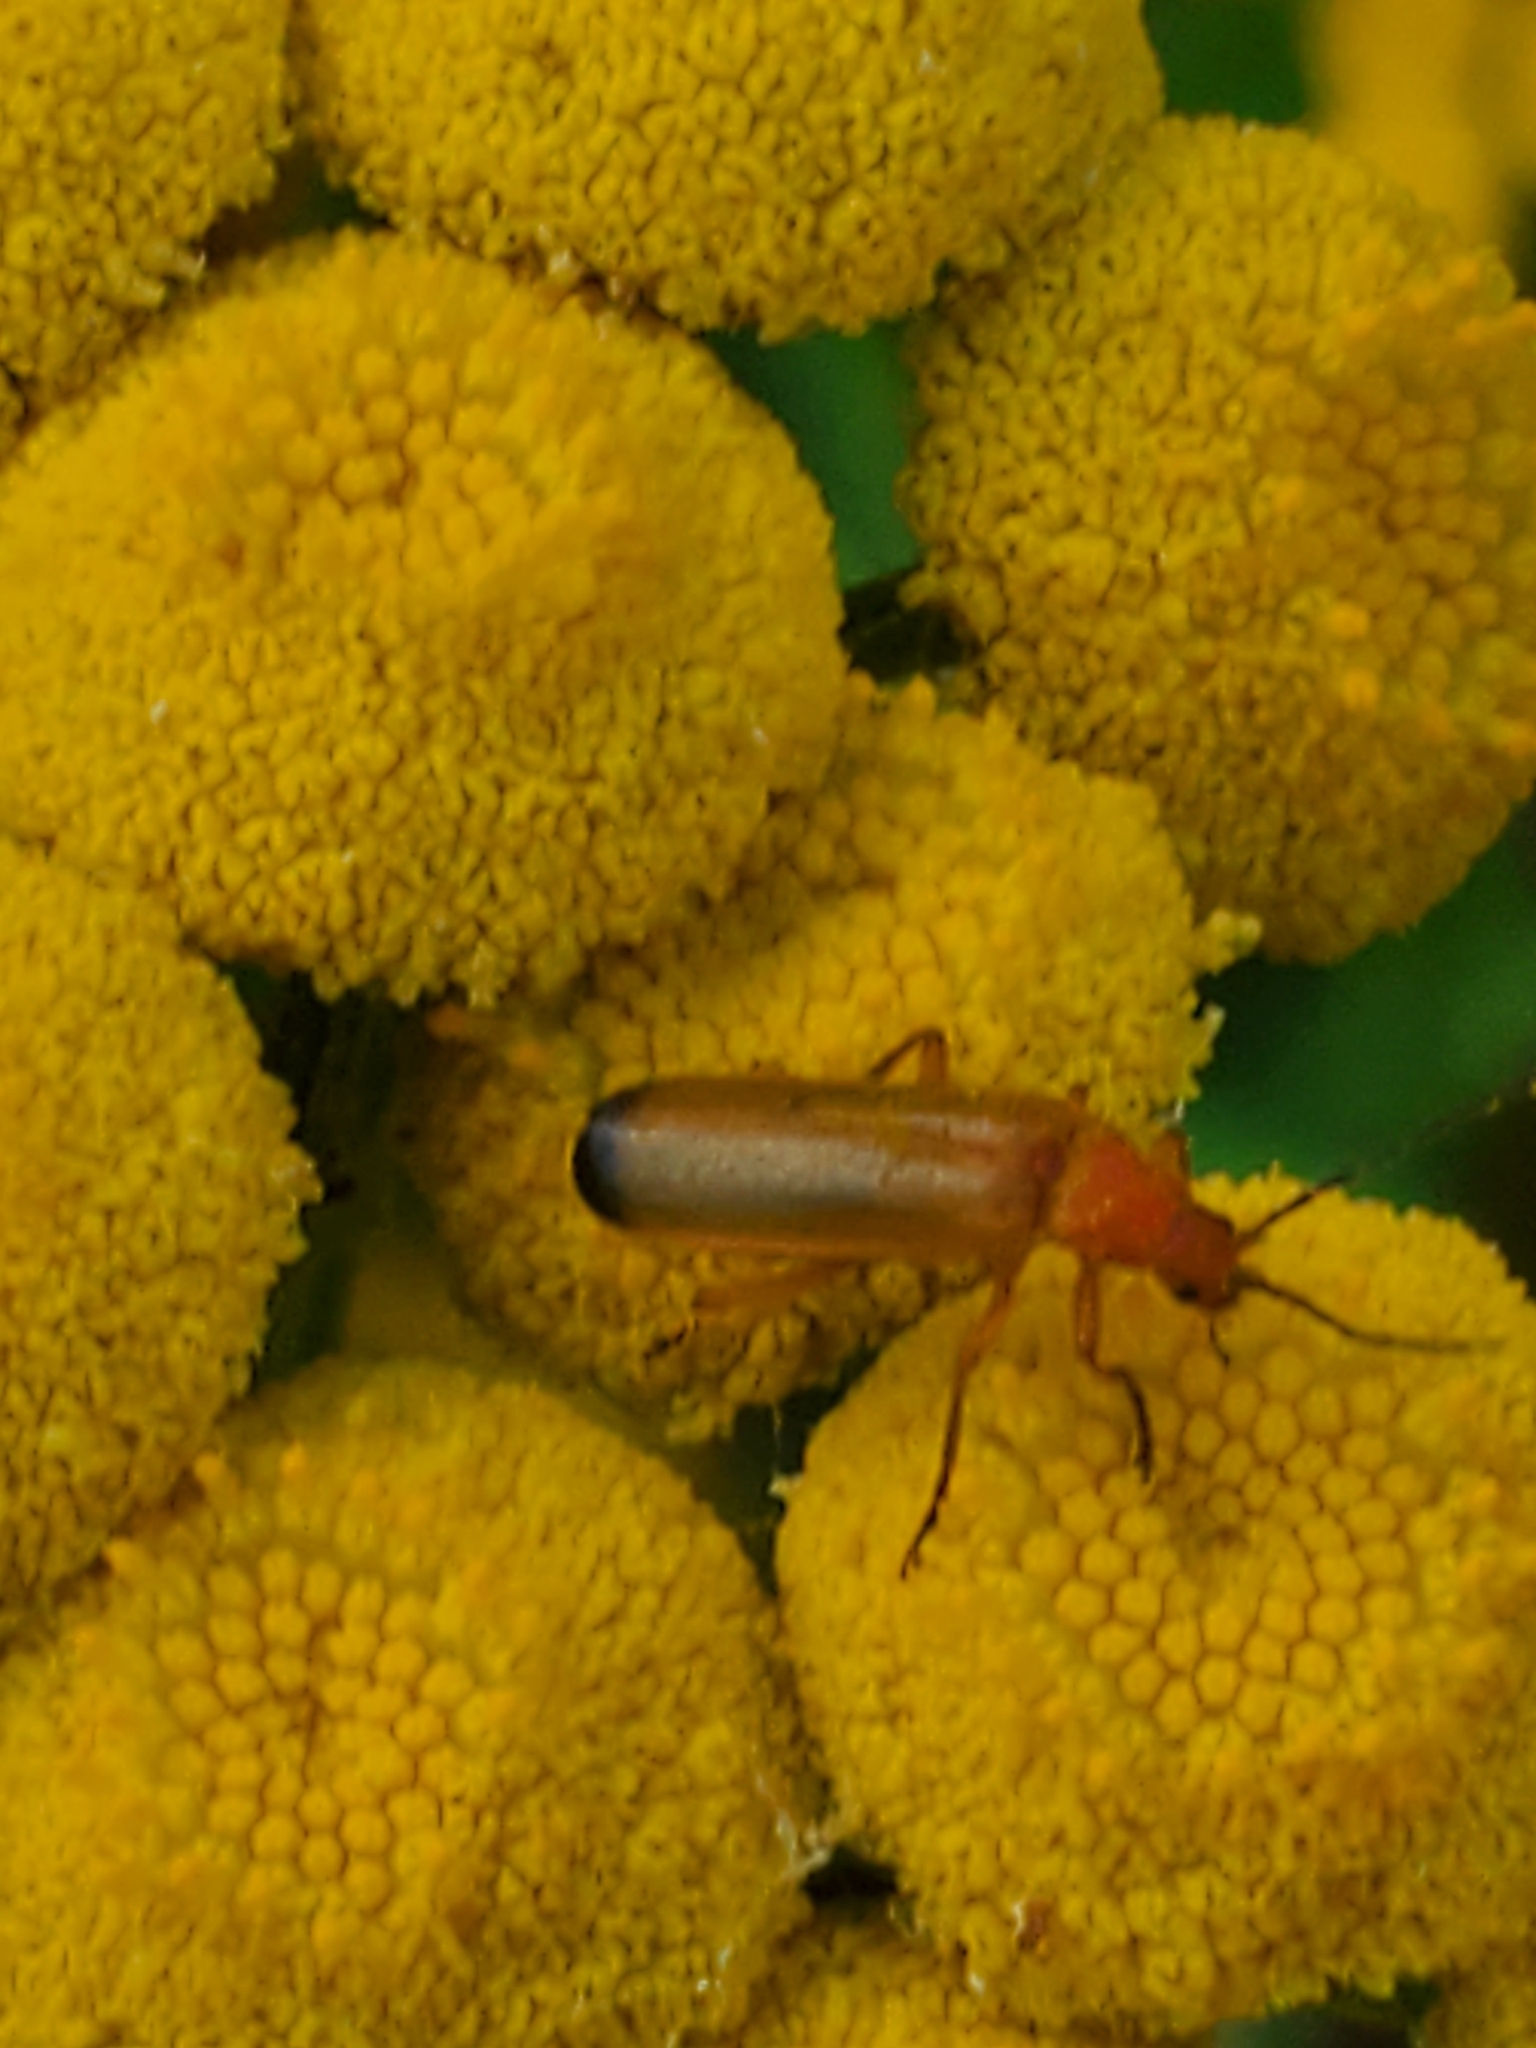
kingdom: Animalia
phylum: Arthropoda
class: Insecta
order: Coleoptera
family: Cantharidae
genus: Rhagonycha
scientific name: Rhagonycha fulva
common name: Common red soldier beetle
